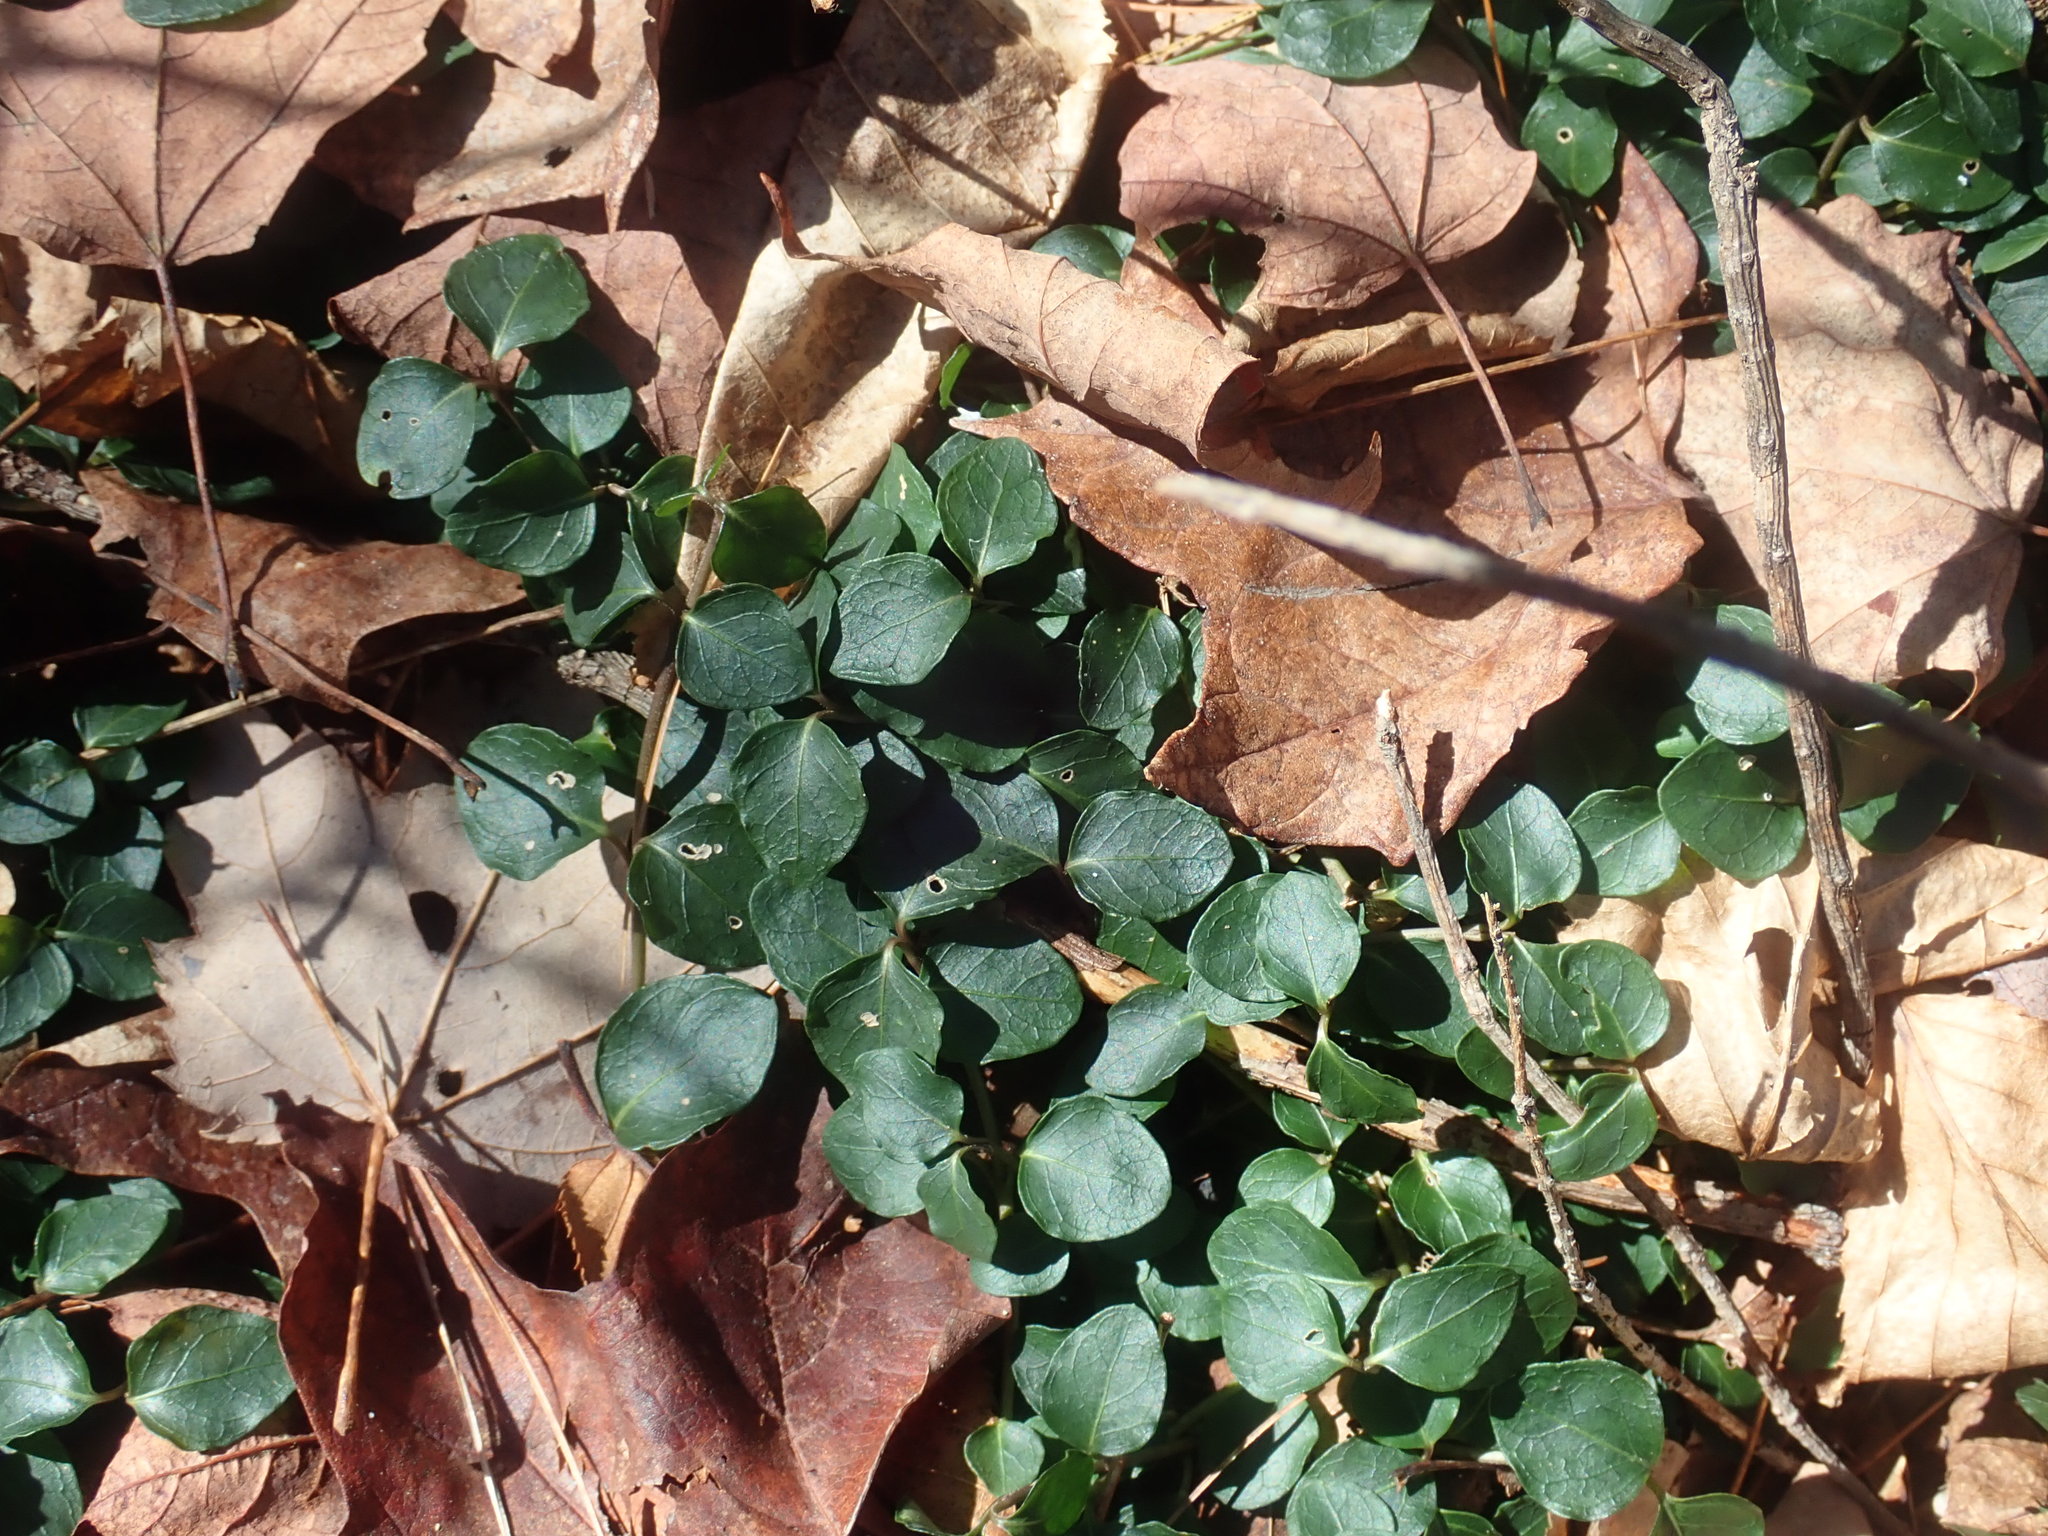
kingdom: Plantae
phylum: Tracheophyta
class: Magnoliopsida
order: Gentianales
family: Rubiaceae
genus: Mitchella
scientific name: Mitchella repens
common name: Partridge-berry
